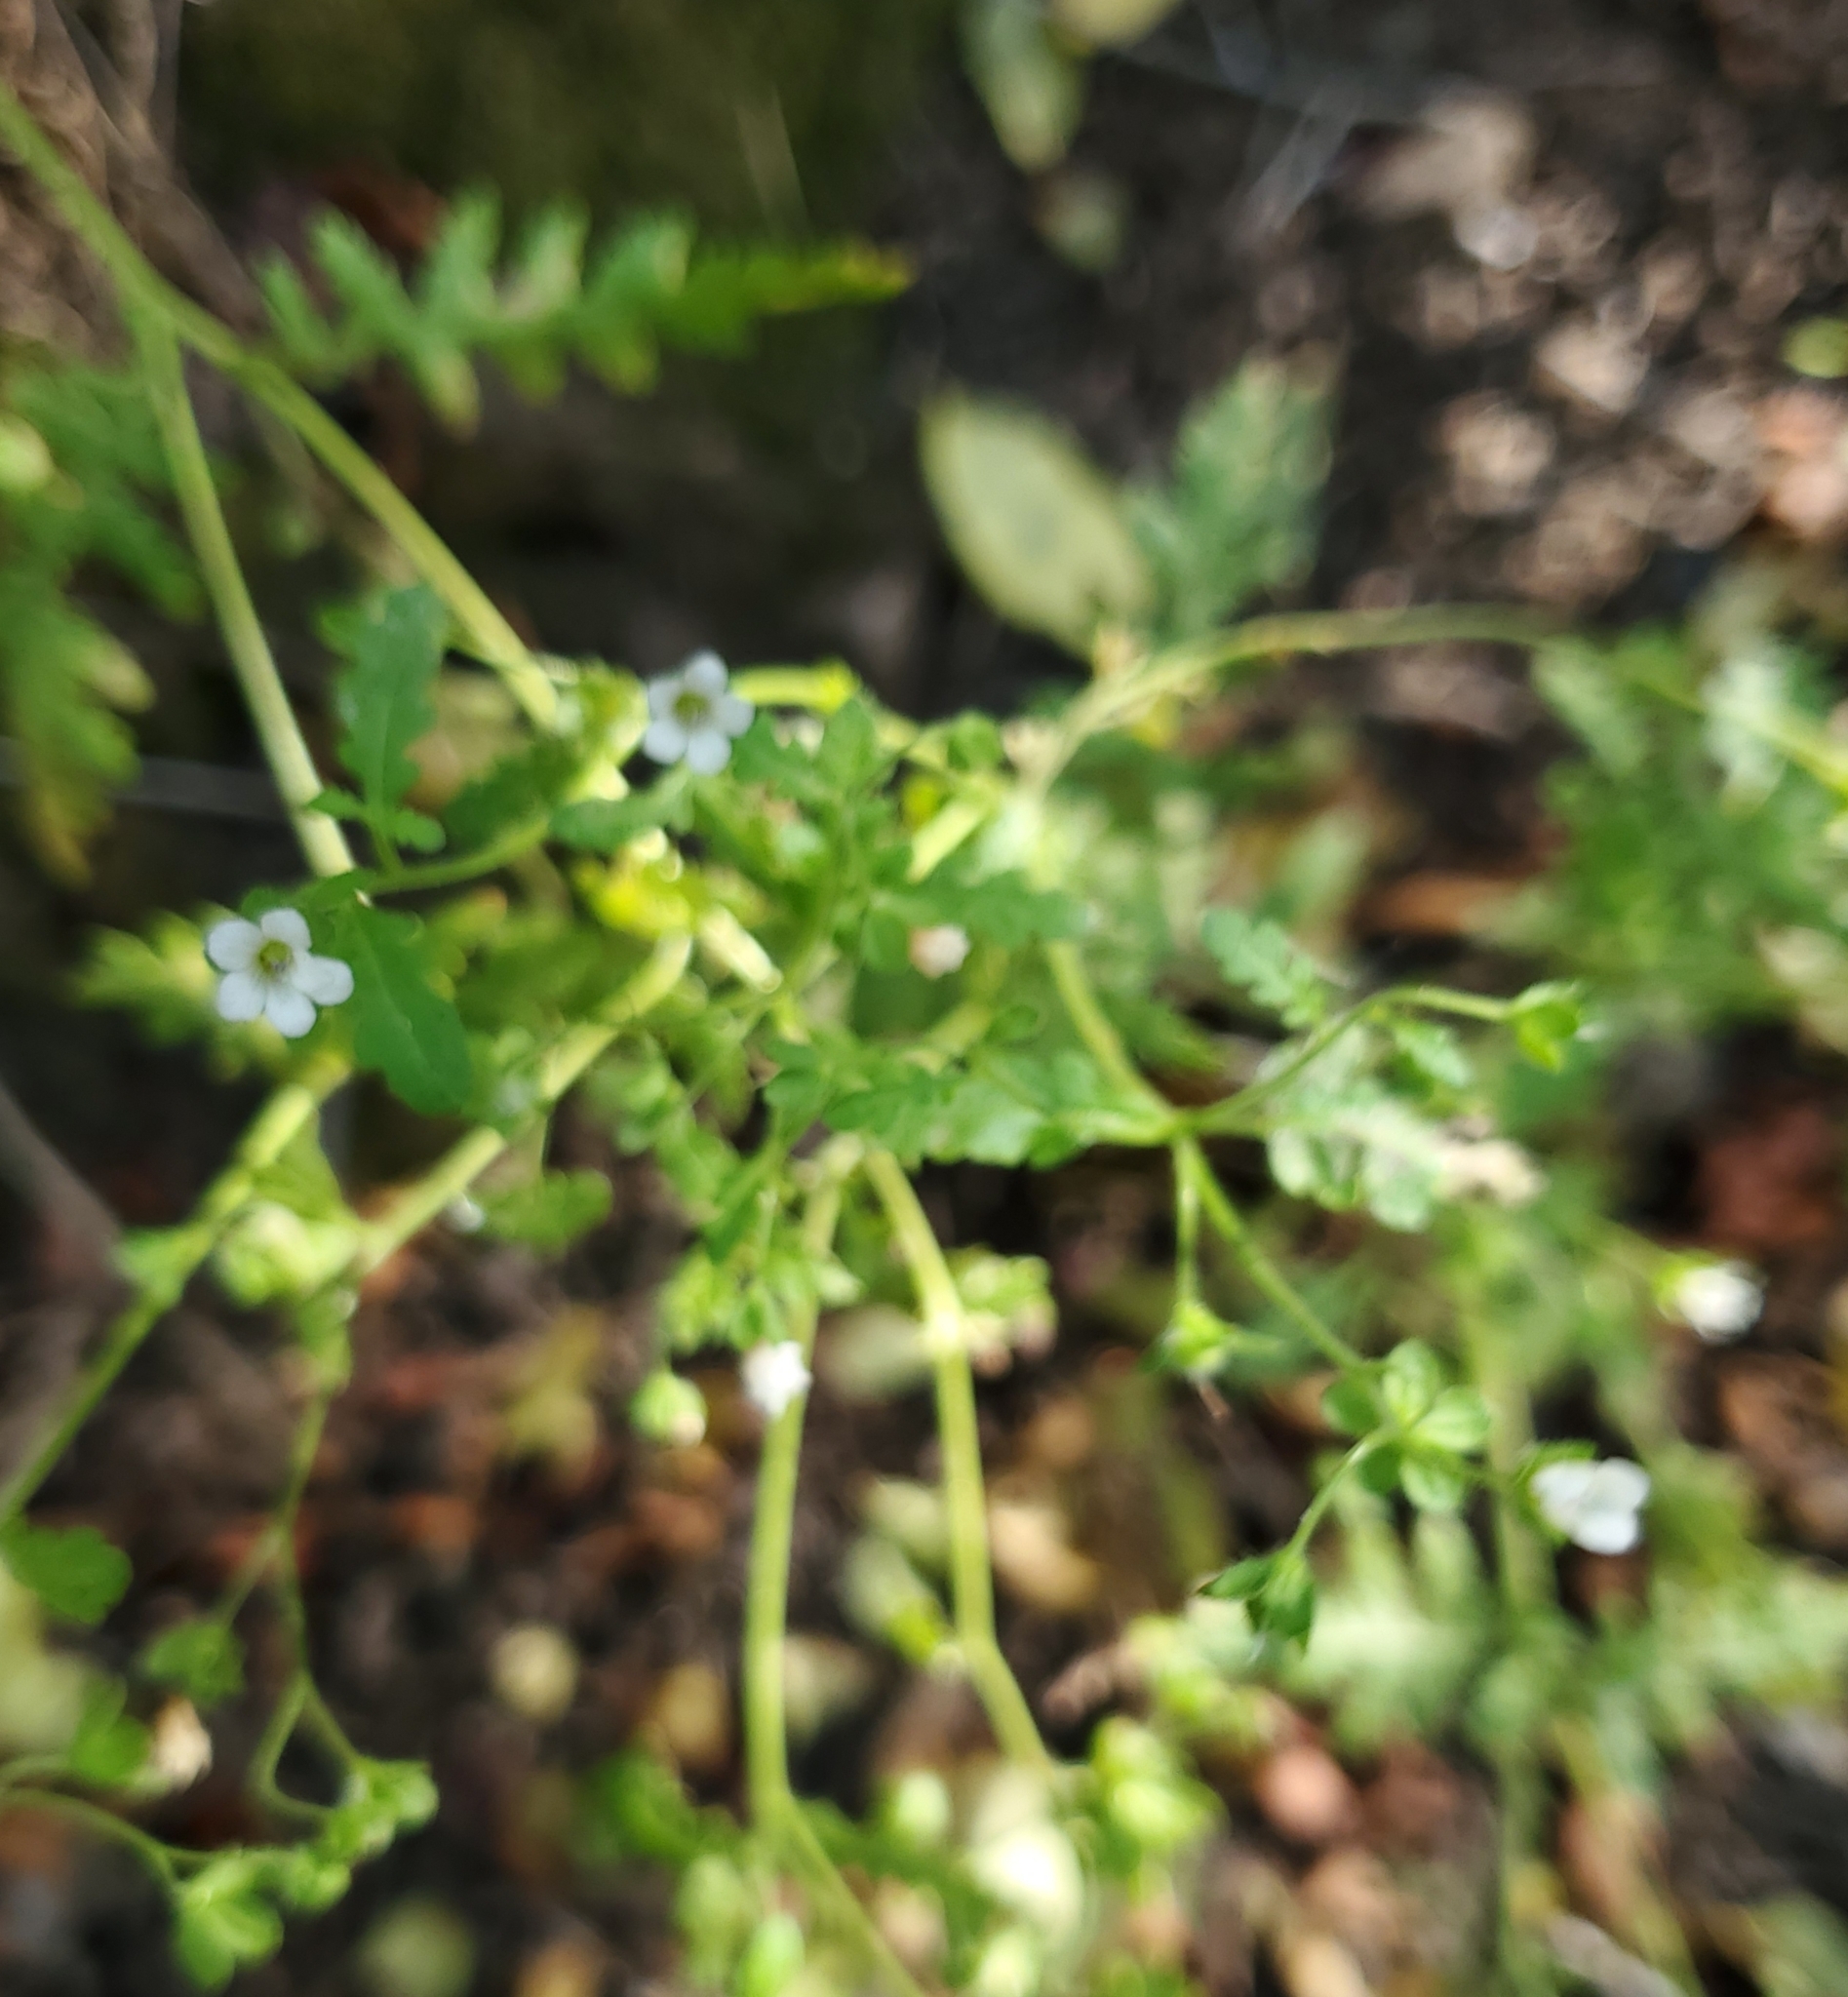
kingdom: Plantae
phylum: Tracheophyta
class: Magnoliopsida
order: Boraginales
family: Hydrophyllaceae
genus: Eucrypta
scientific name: Eucrypta chrysanthemifolia
